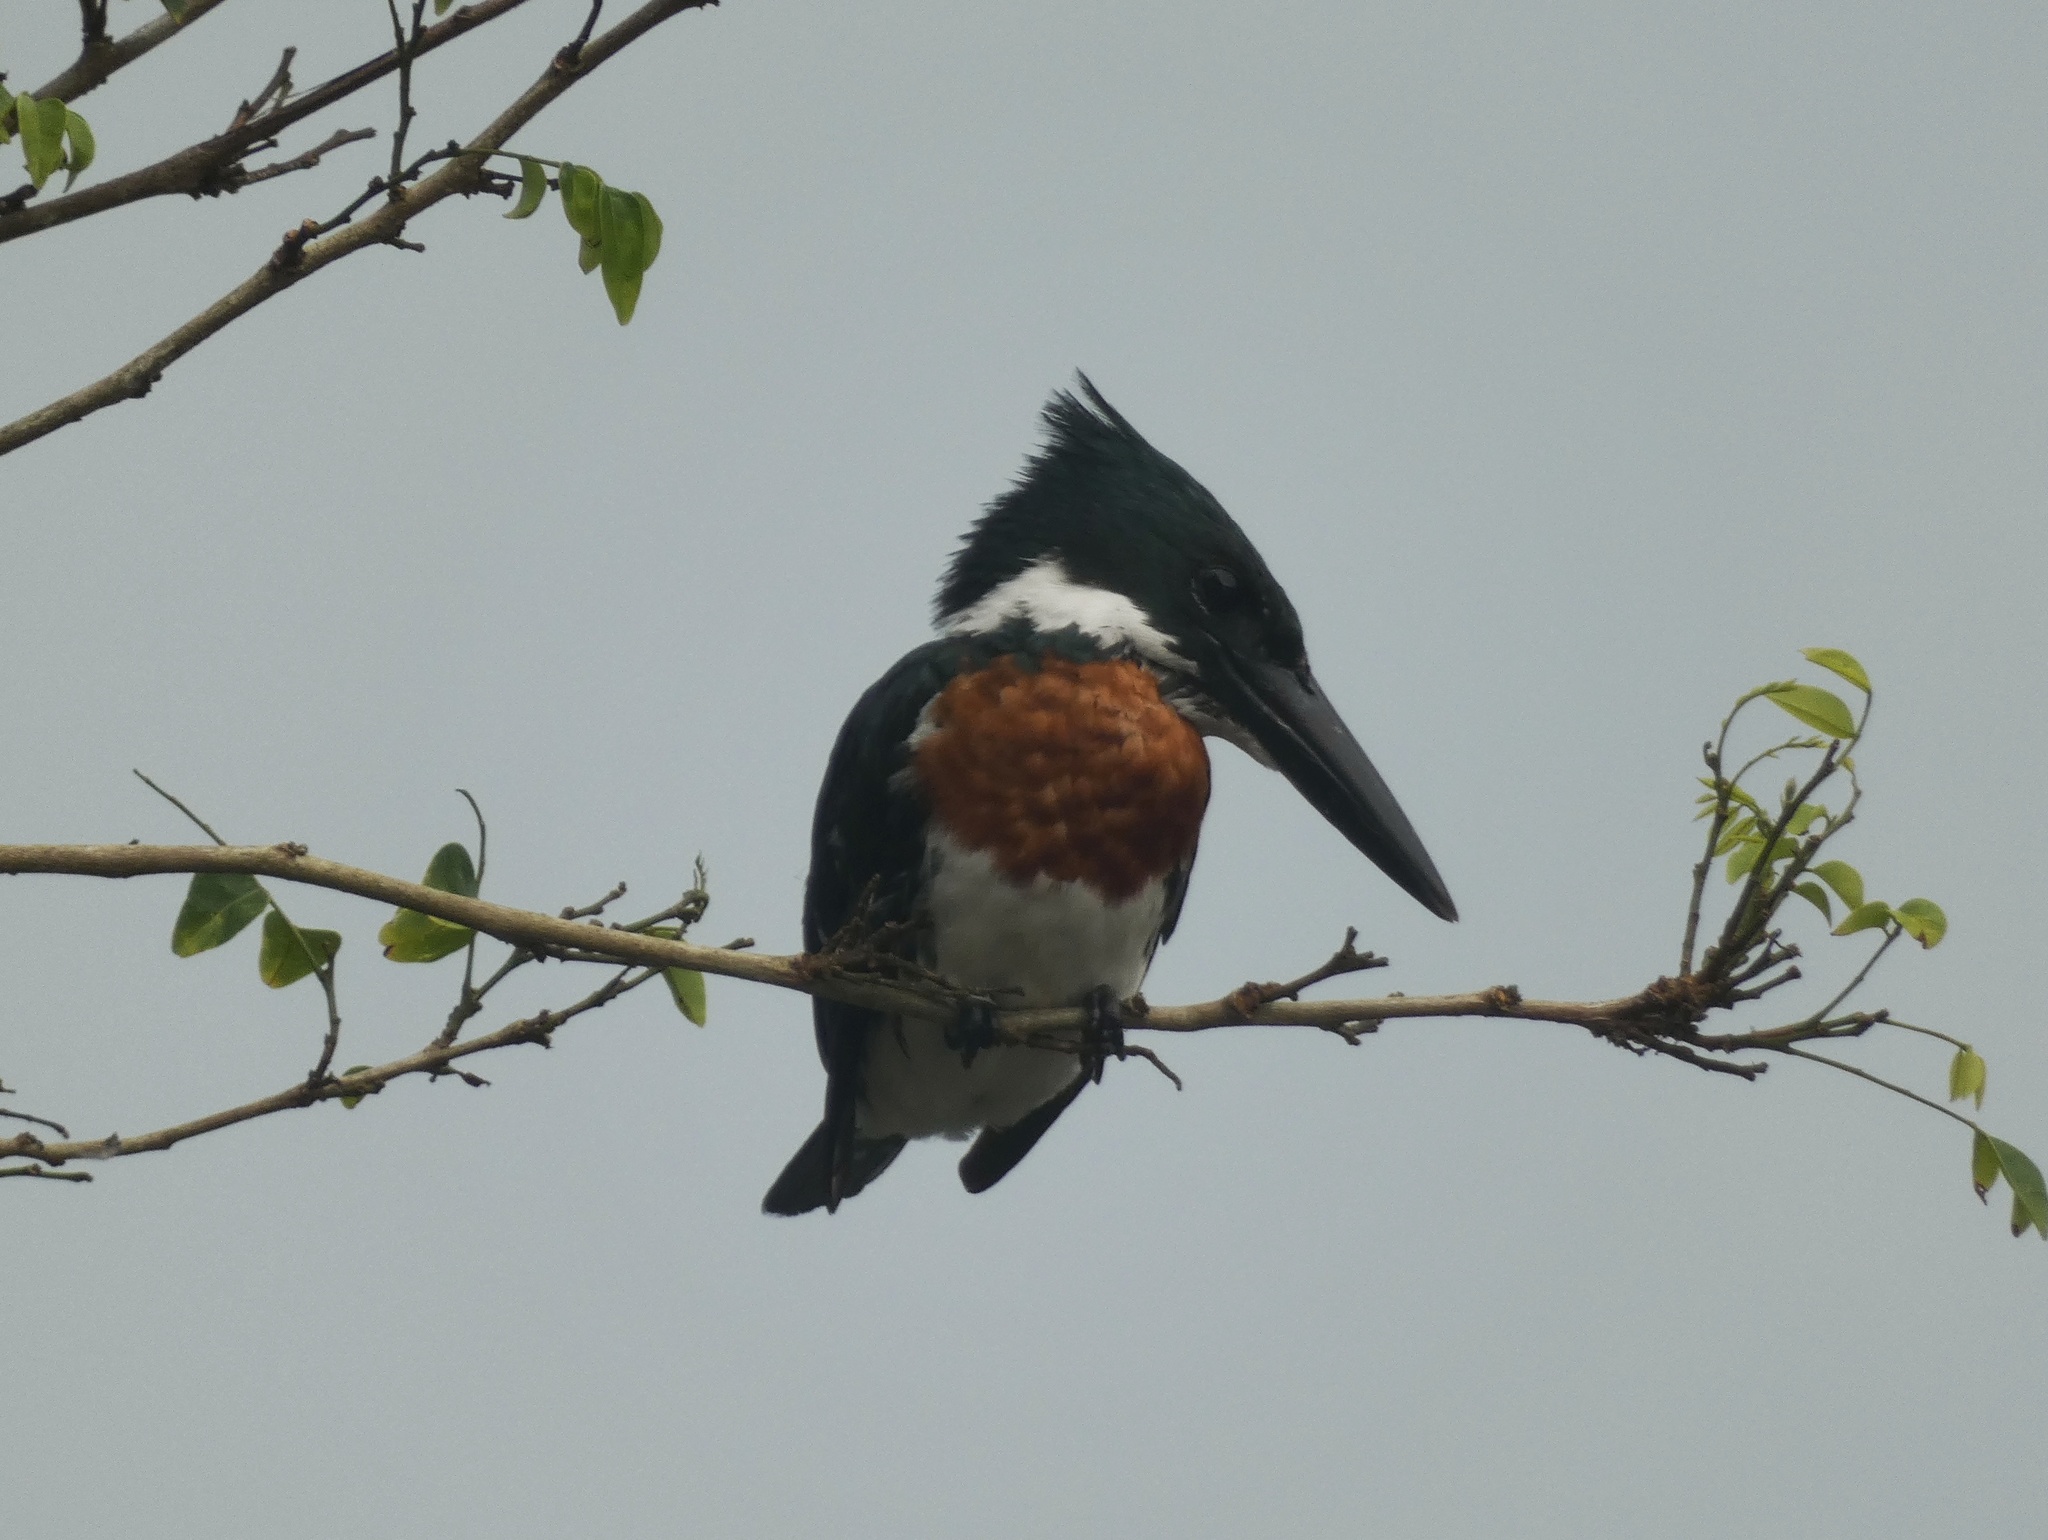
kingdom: Animalia
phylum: Chordata
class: Aves
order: Coraciiformes
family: Alcedinidae
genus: Chloroceryle
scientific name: Chloroceryle amazona
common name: Amazon kingfisher
